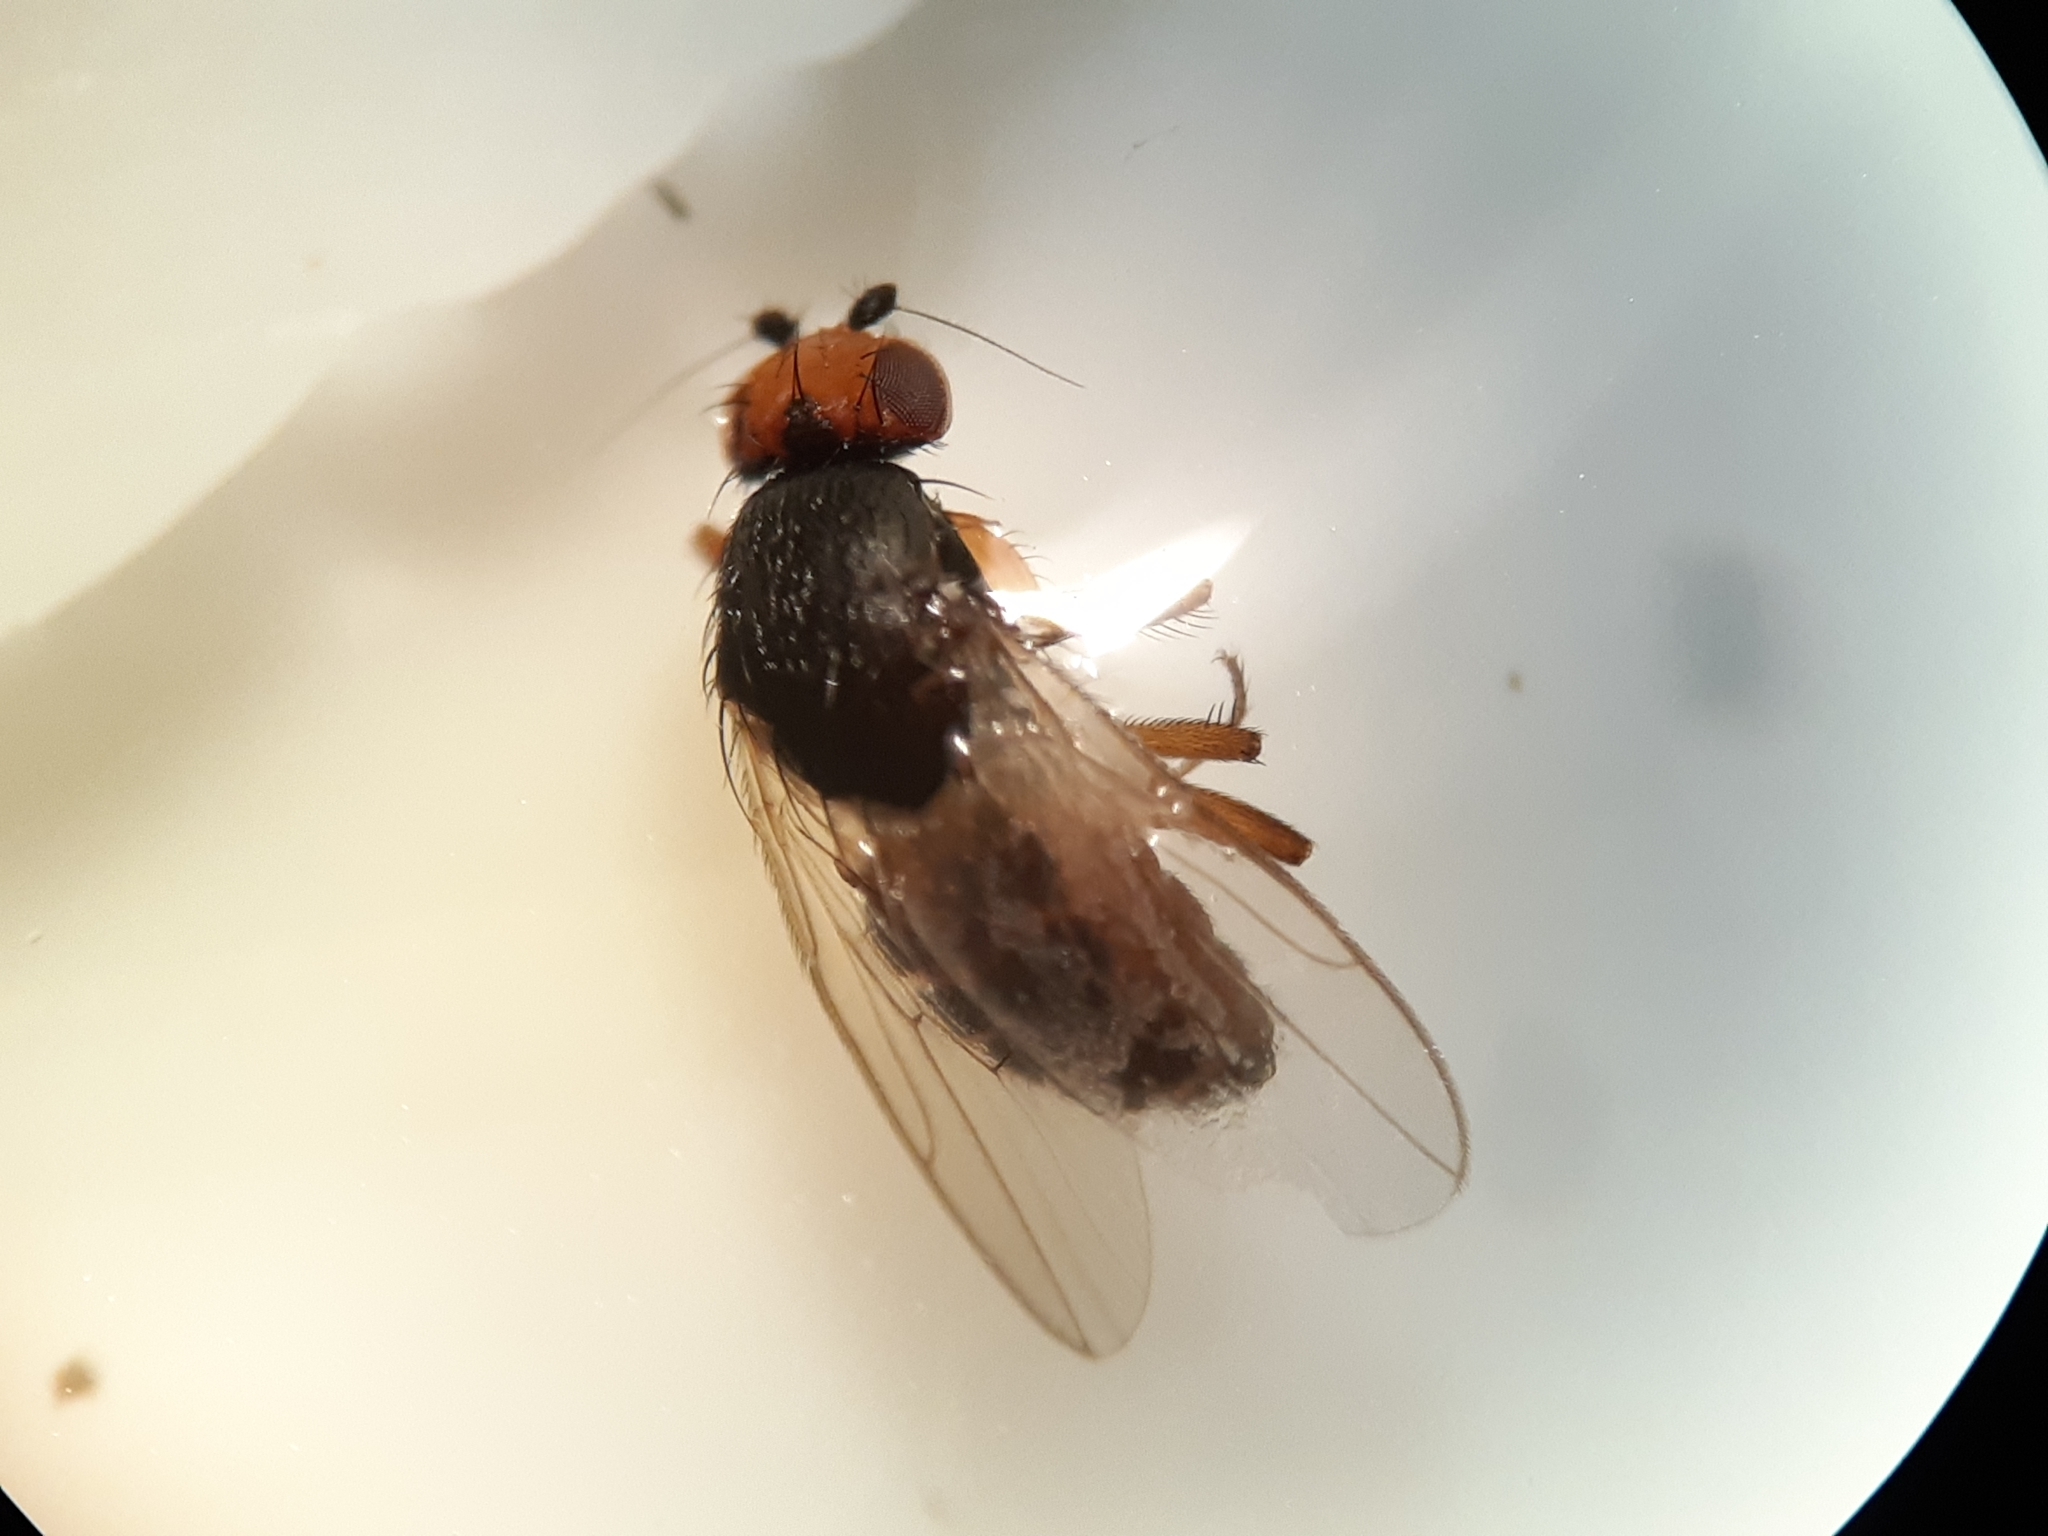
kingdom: Animalia
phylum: Arthropoda
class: Insecta
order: Diptera
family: Sphaeroceridae
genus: Spelobia
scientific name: Spelobia ochripes
